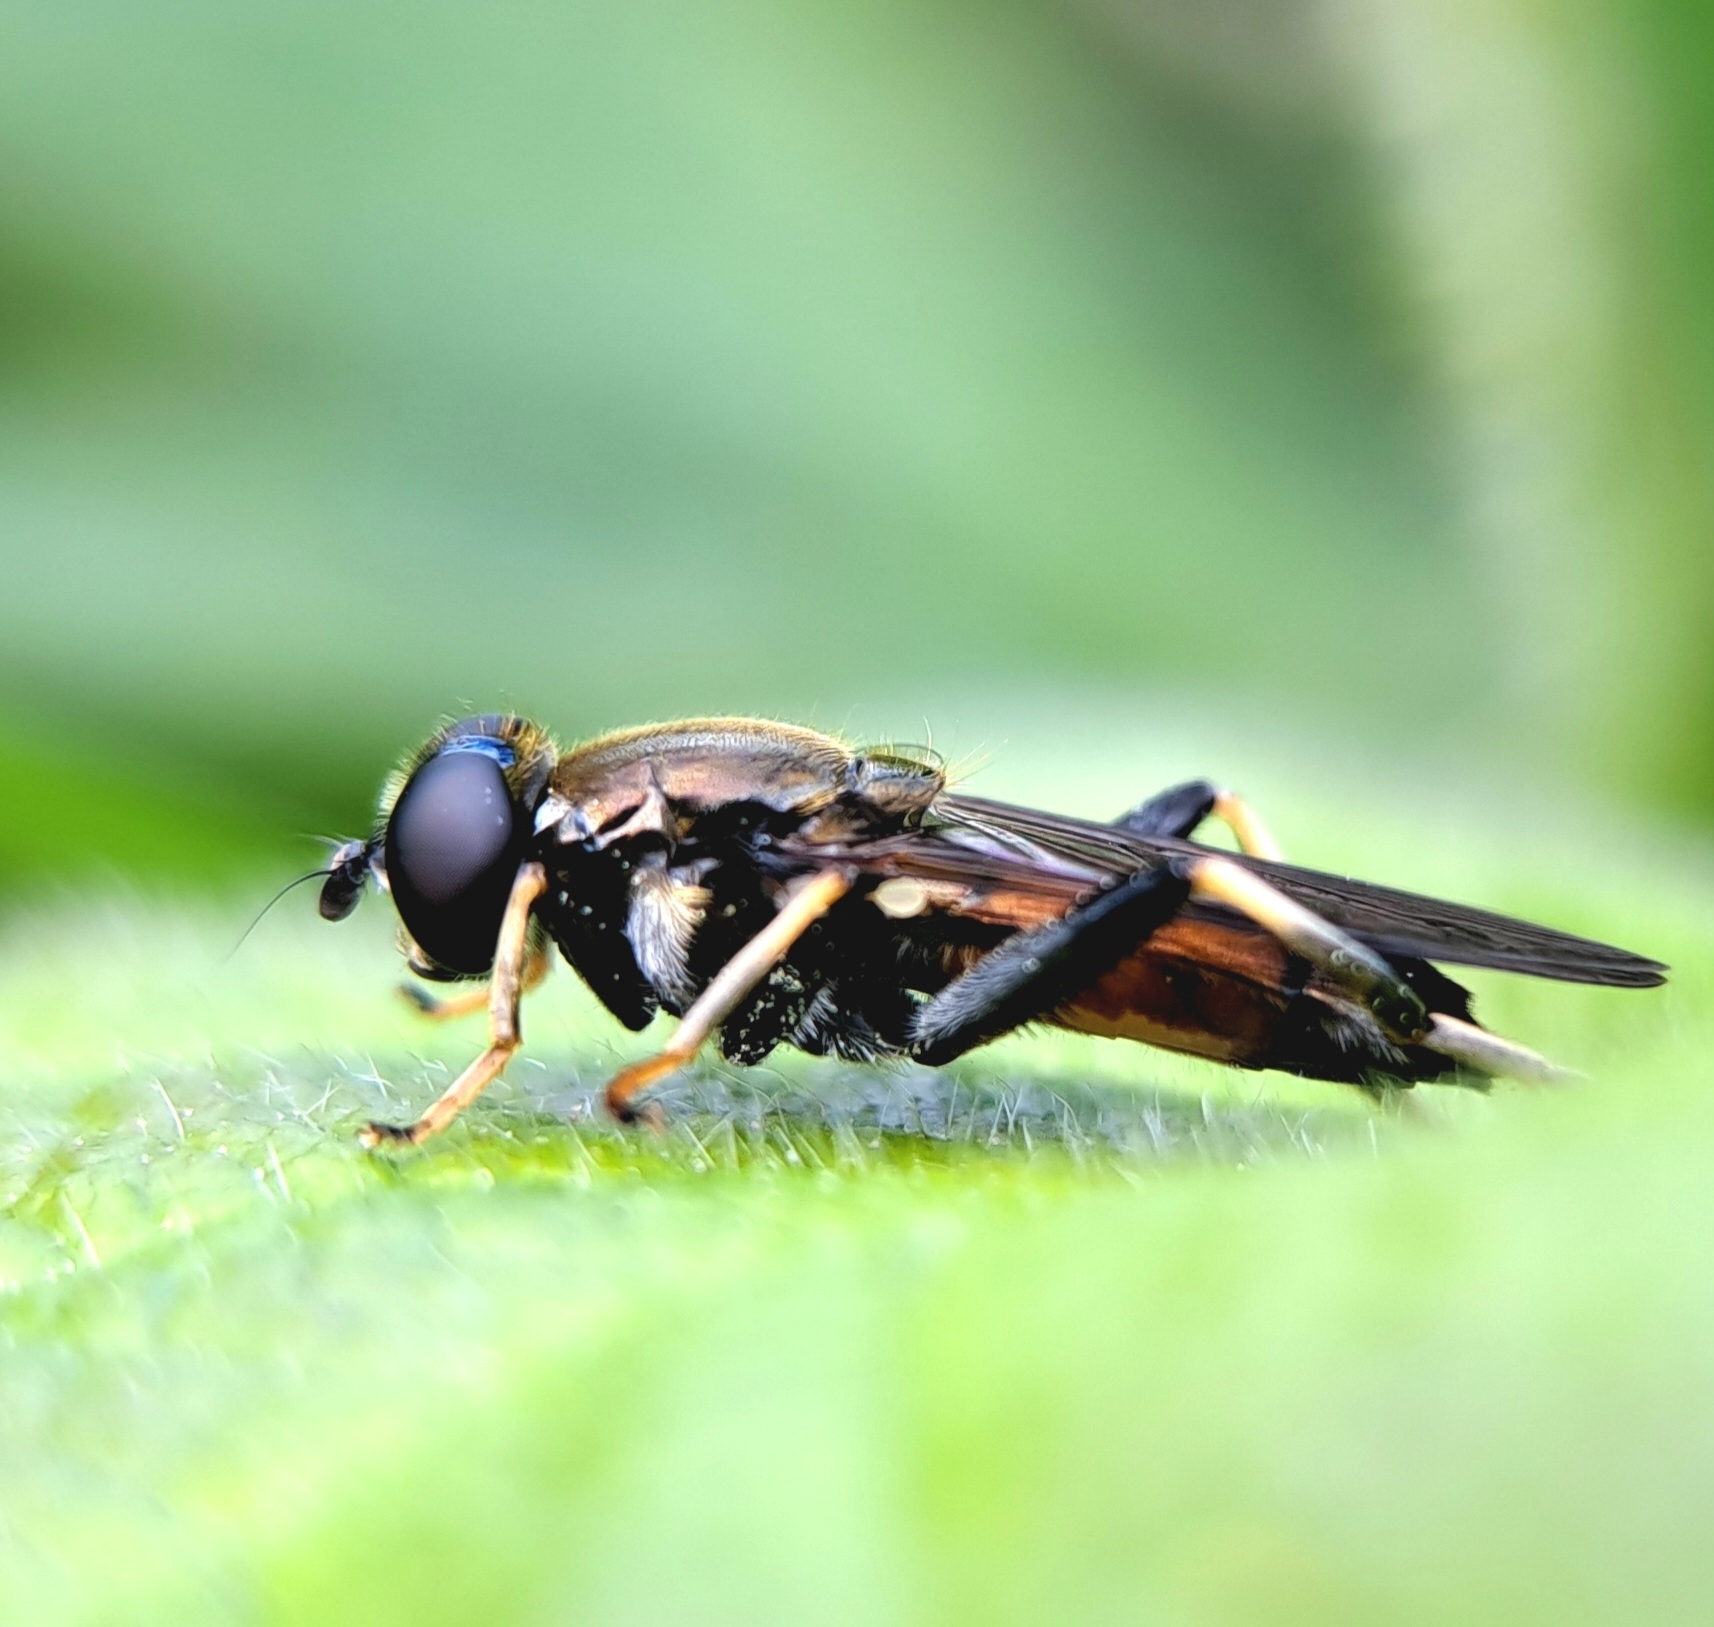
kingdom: Animalia
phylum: Arthropoda
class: Insecta
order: Diptera
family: Syrphidae
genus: Xylota
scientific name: Xylota segnis
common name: Brown-toed forest fly
